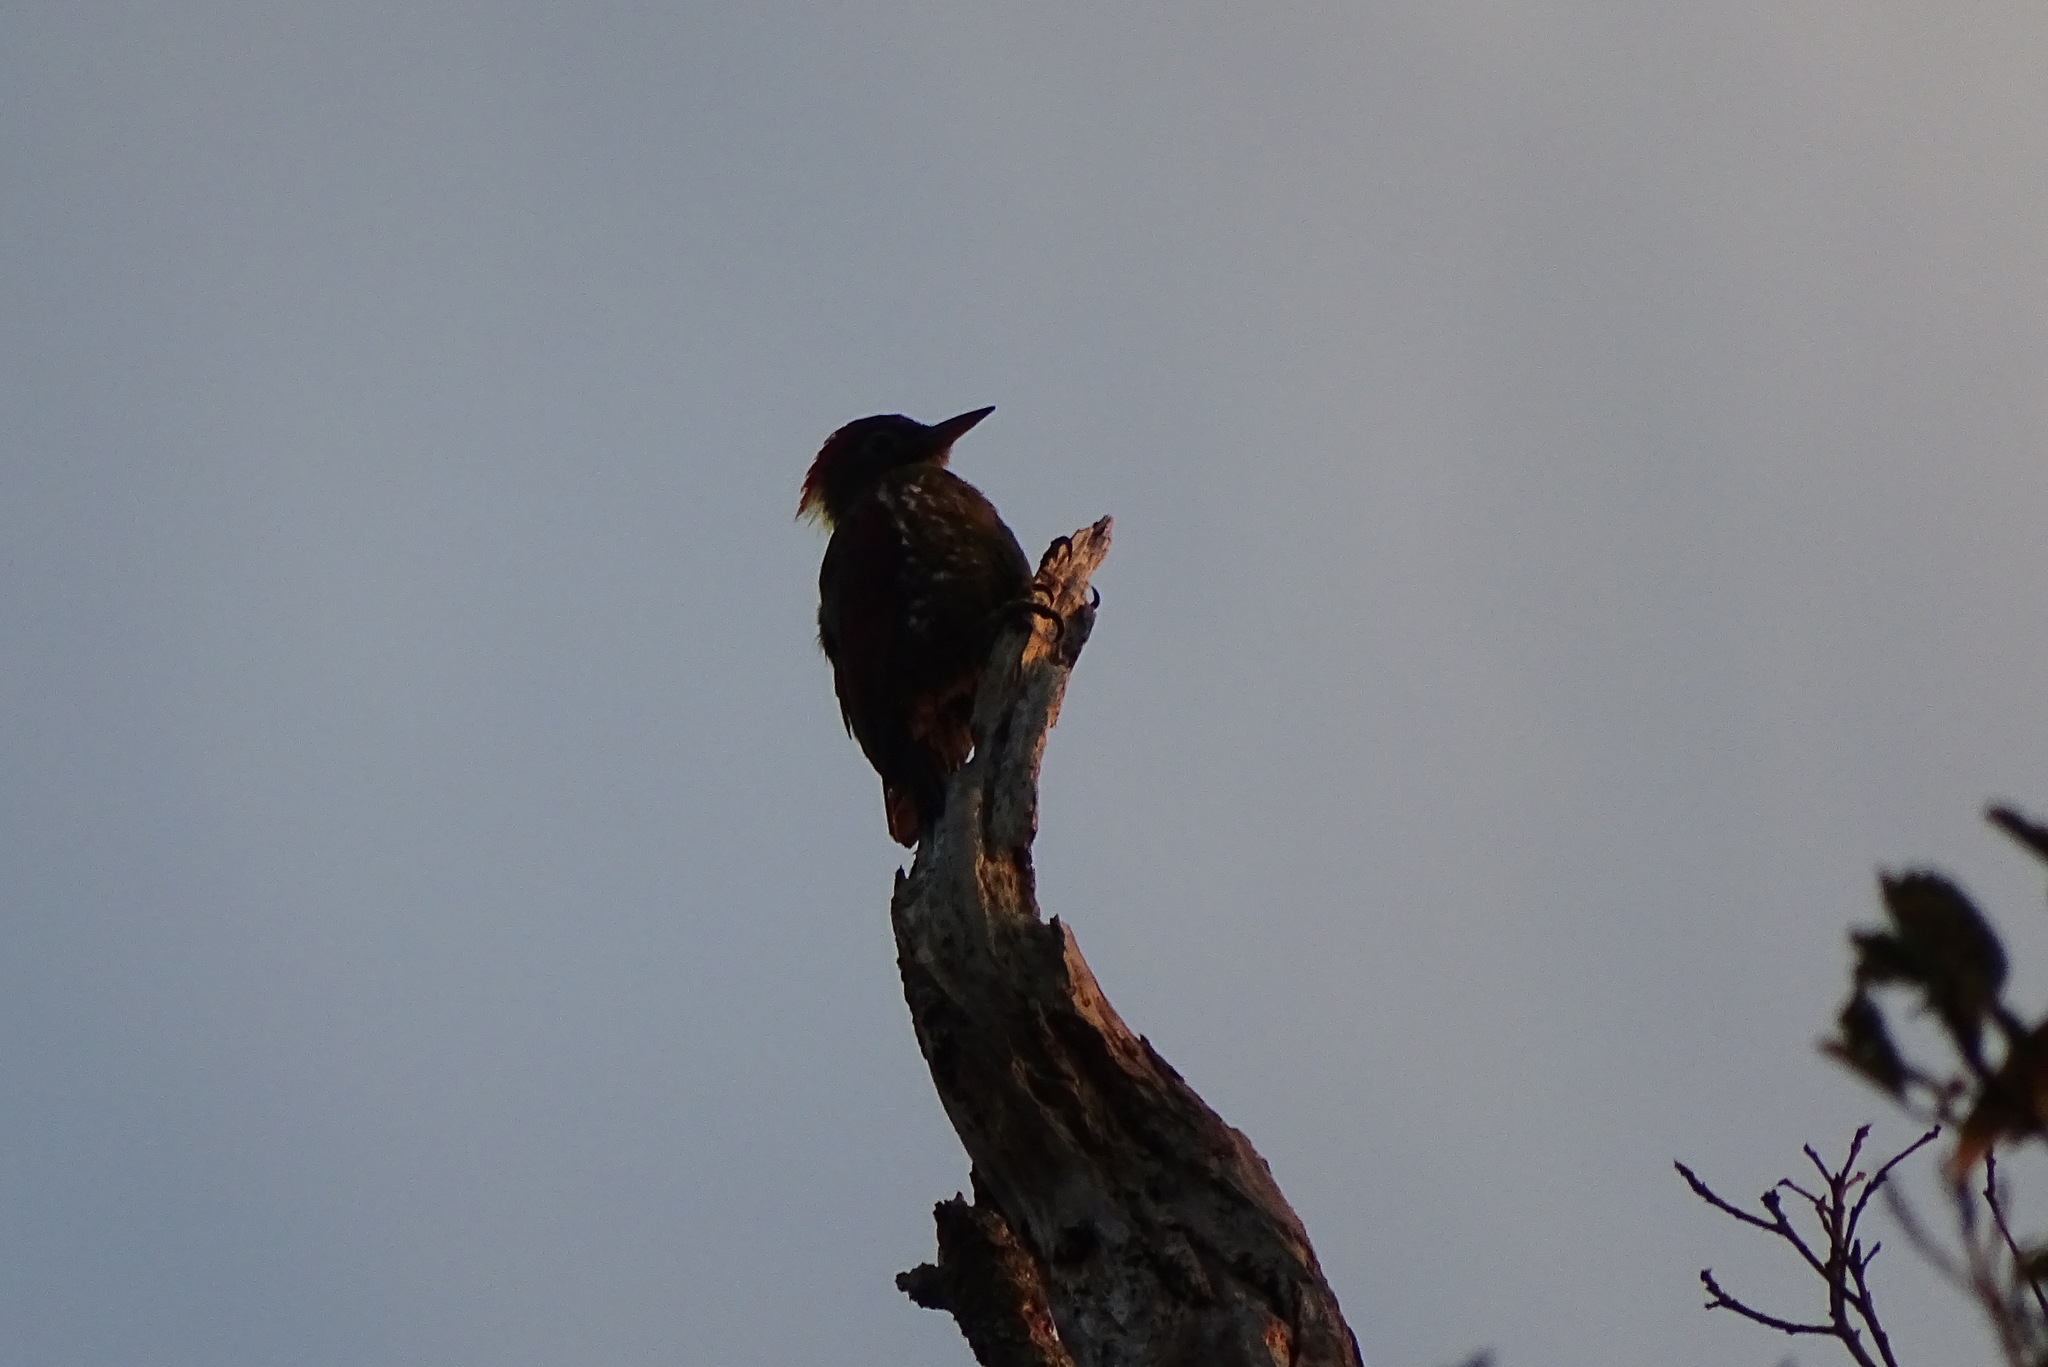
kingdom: Animalia
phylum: Chordata
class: Aves
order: Piciformes
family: Picidae
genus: Chrysophlegma
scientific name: Chrysophlegma mentale
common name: Checker-throated woodpecker
